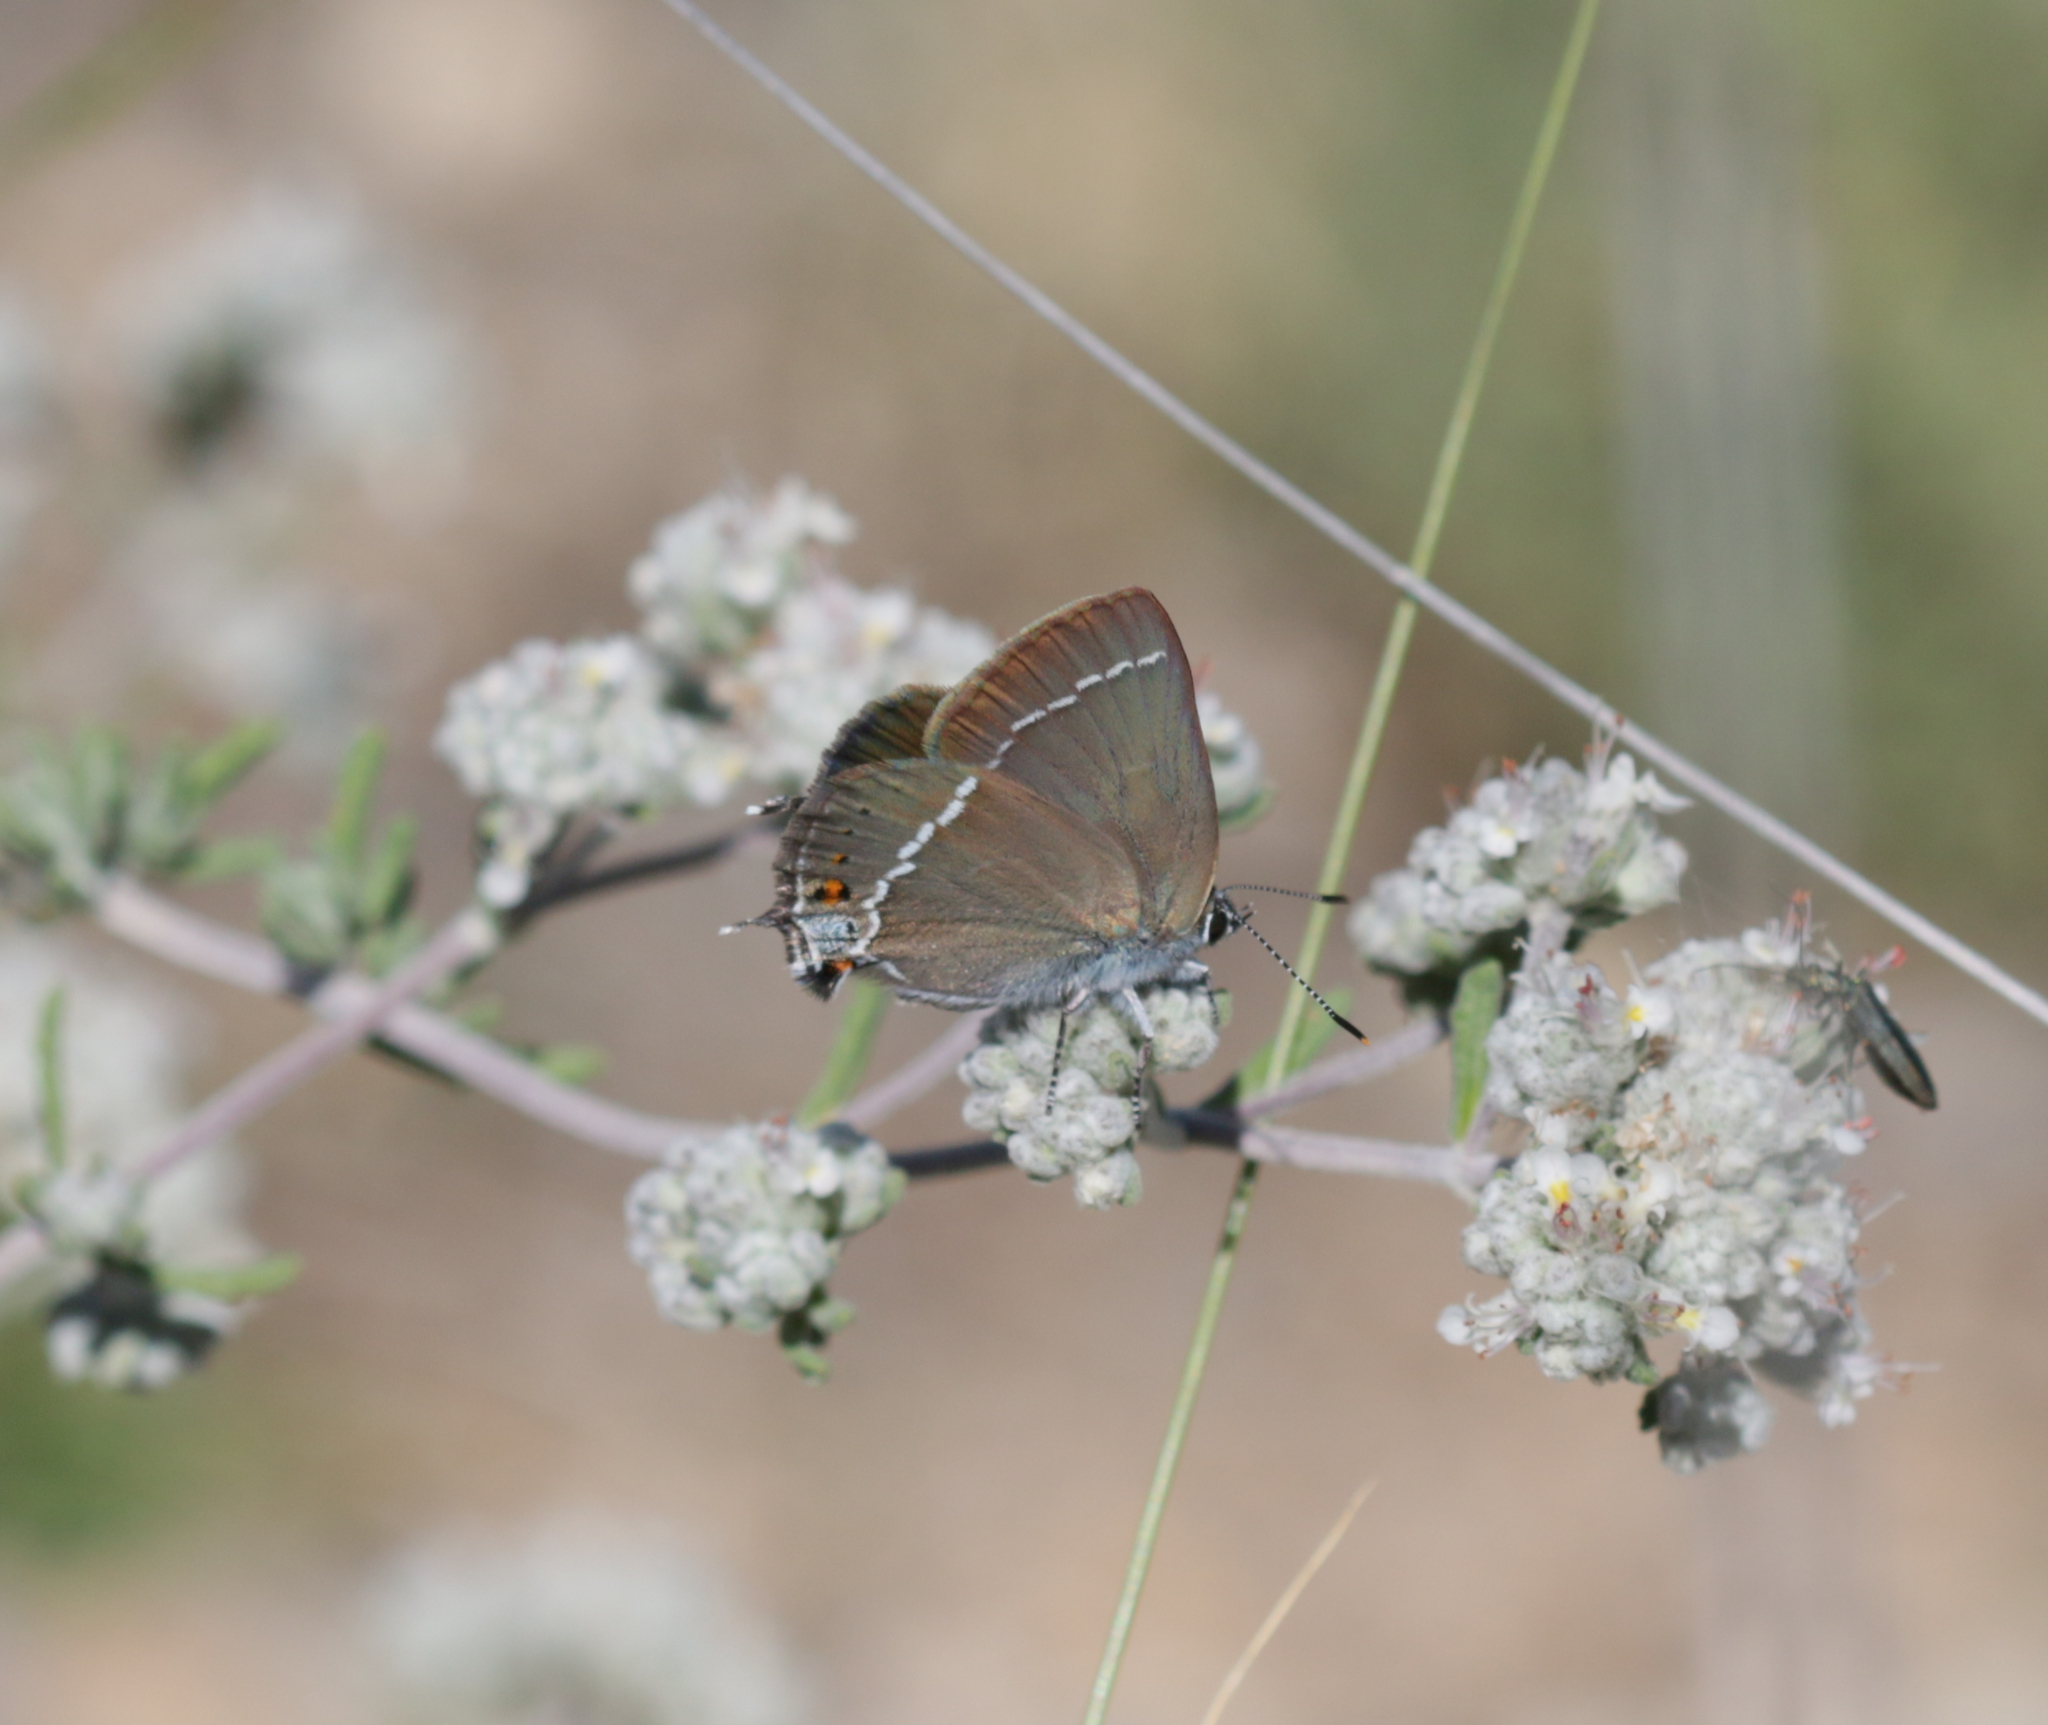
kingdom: Animalia
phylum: Arthropoda
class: Insecta
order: Lepidoptera
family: Lycaenidae
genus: Tuttiola
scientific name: Tuttiola spini
